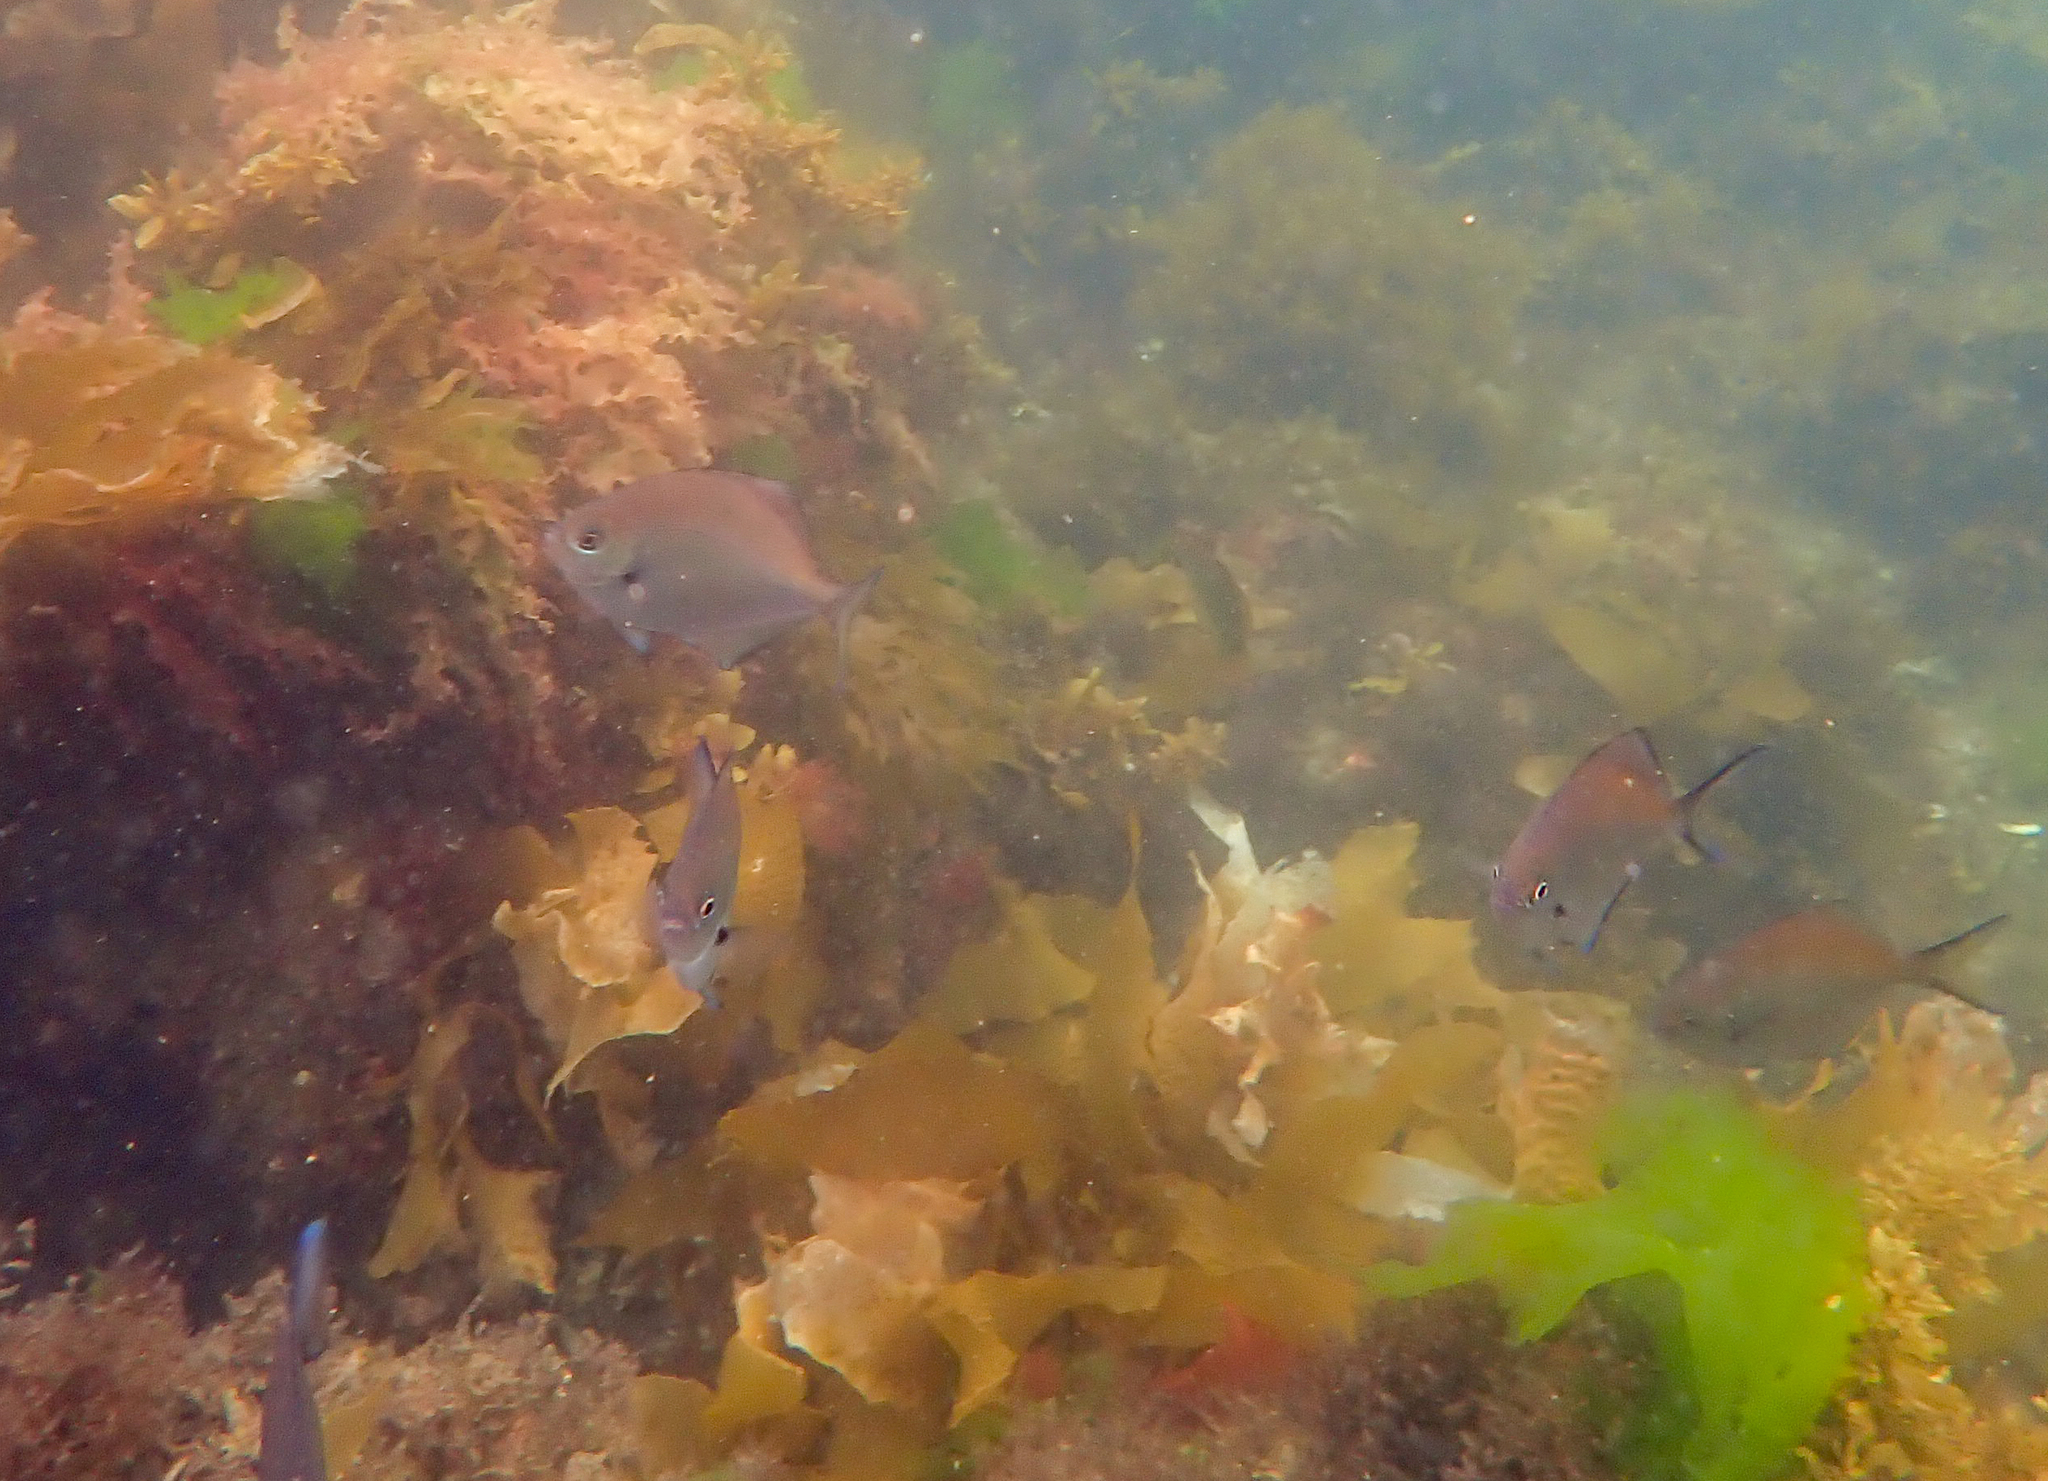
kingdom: Animalia
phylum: Chordata
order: Perciformes
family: Kyphosidae
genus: Scorpis
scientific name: Scorpis lineolata
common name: Sweep
